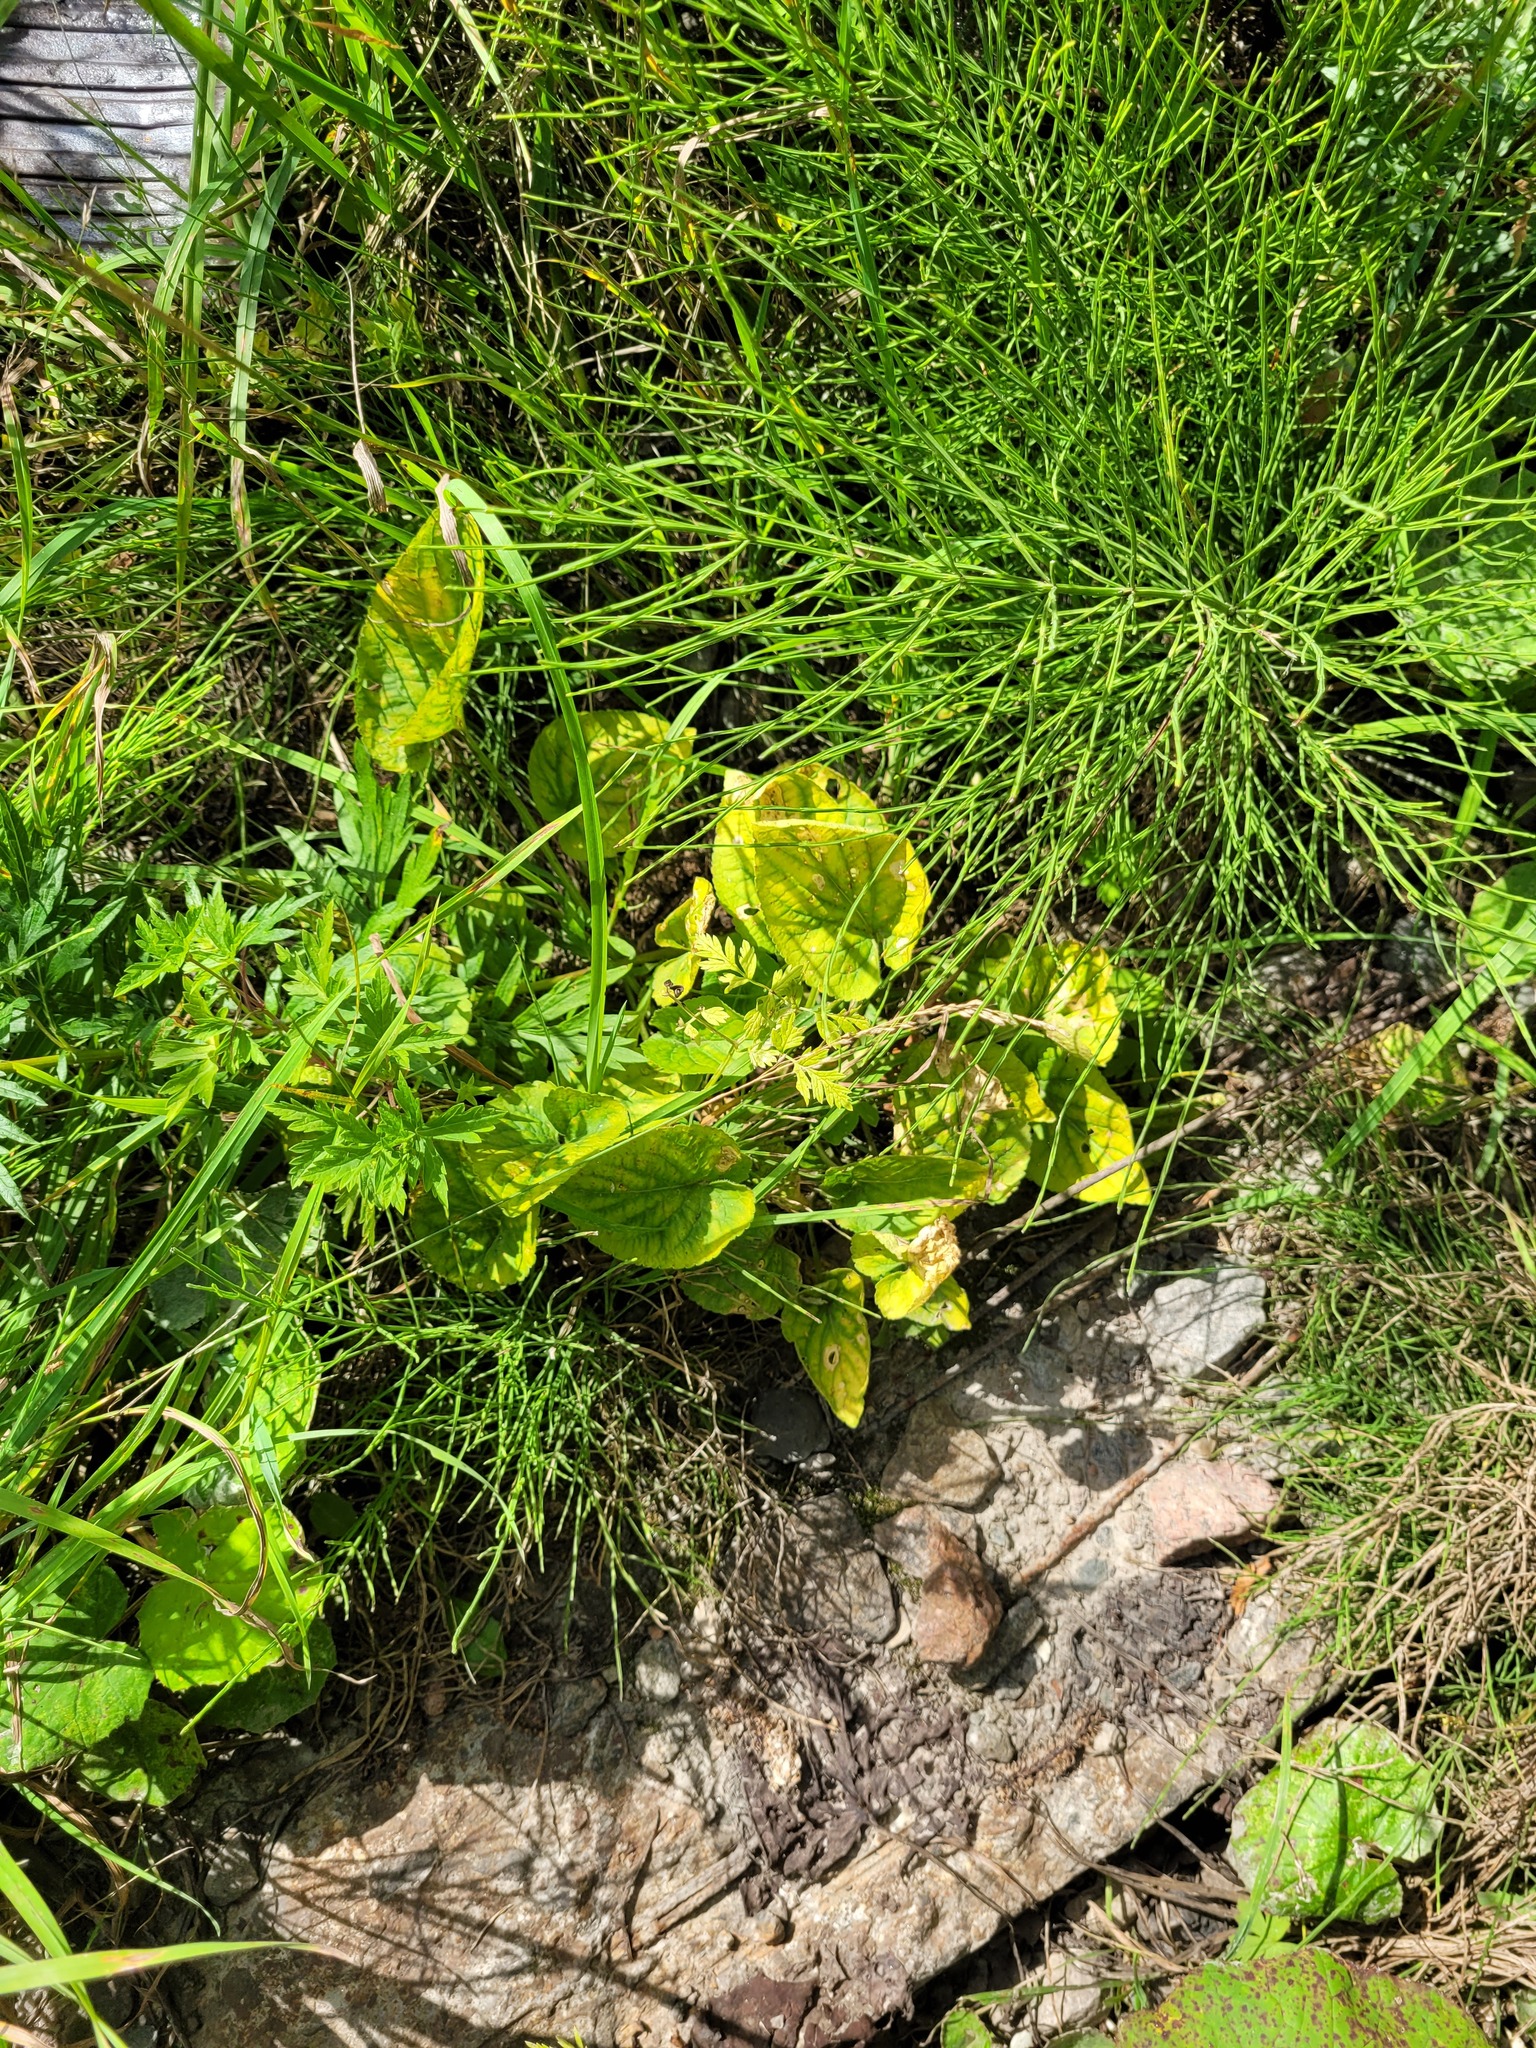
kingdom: Plantae
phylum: Tracheophyta
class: Magnoliopsida
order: Malpighiales
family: Violaceae
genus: Viola
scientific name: Viola hirta
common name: Hairy violet
